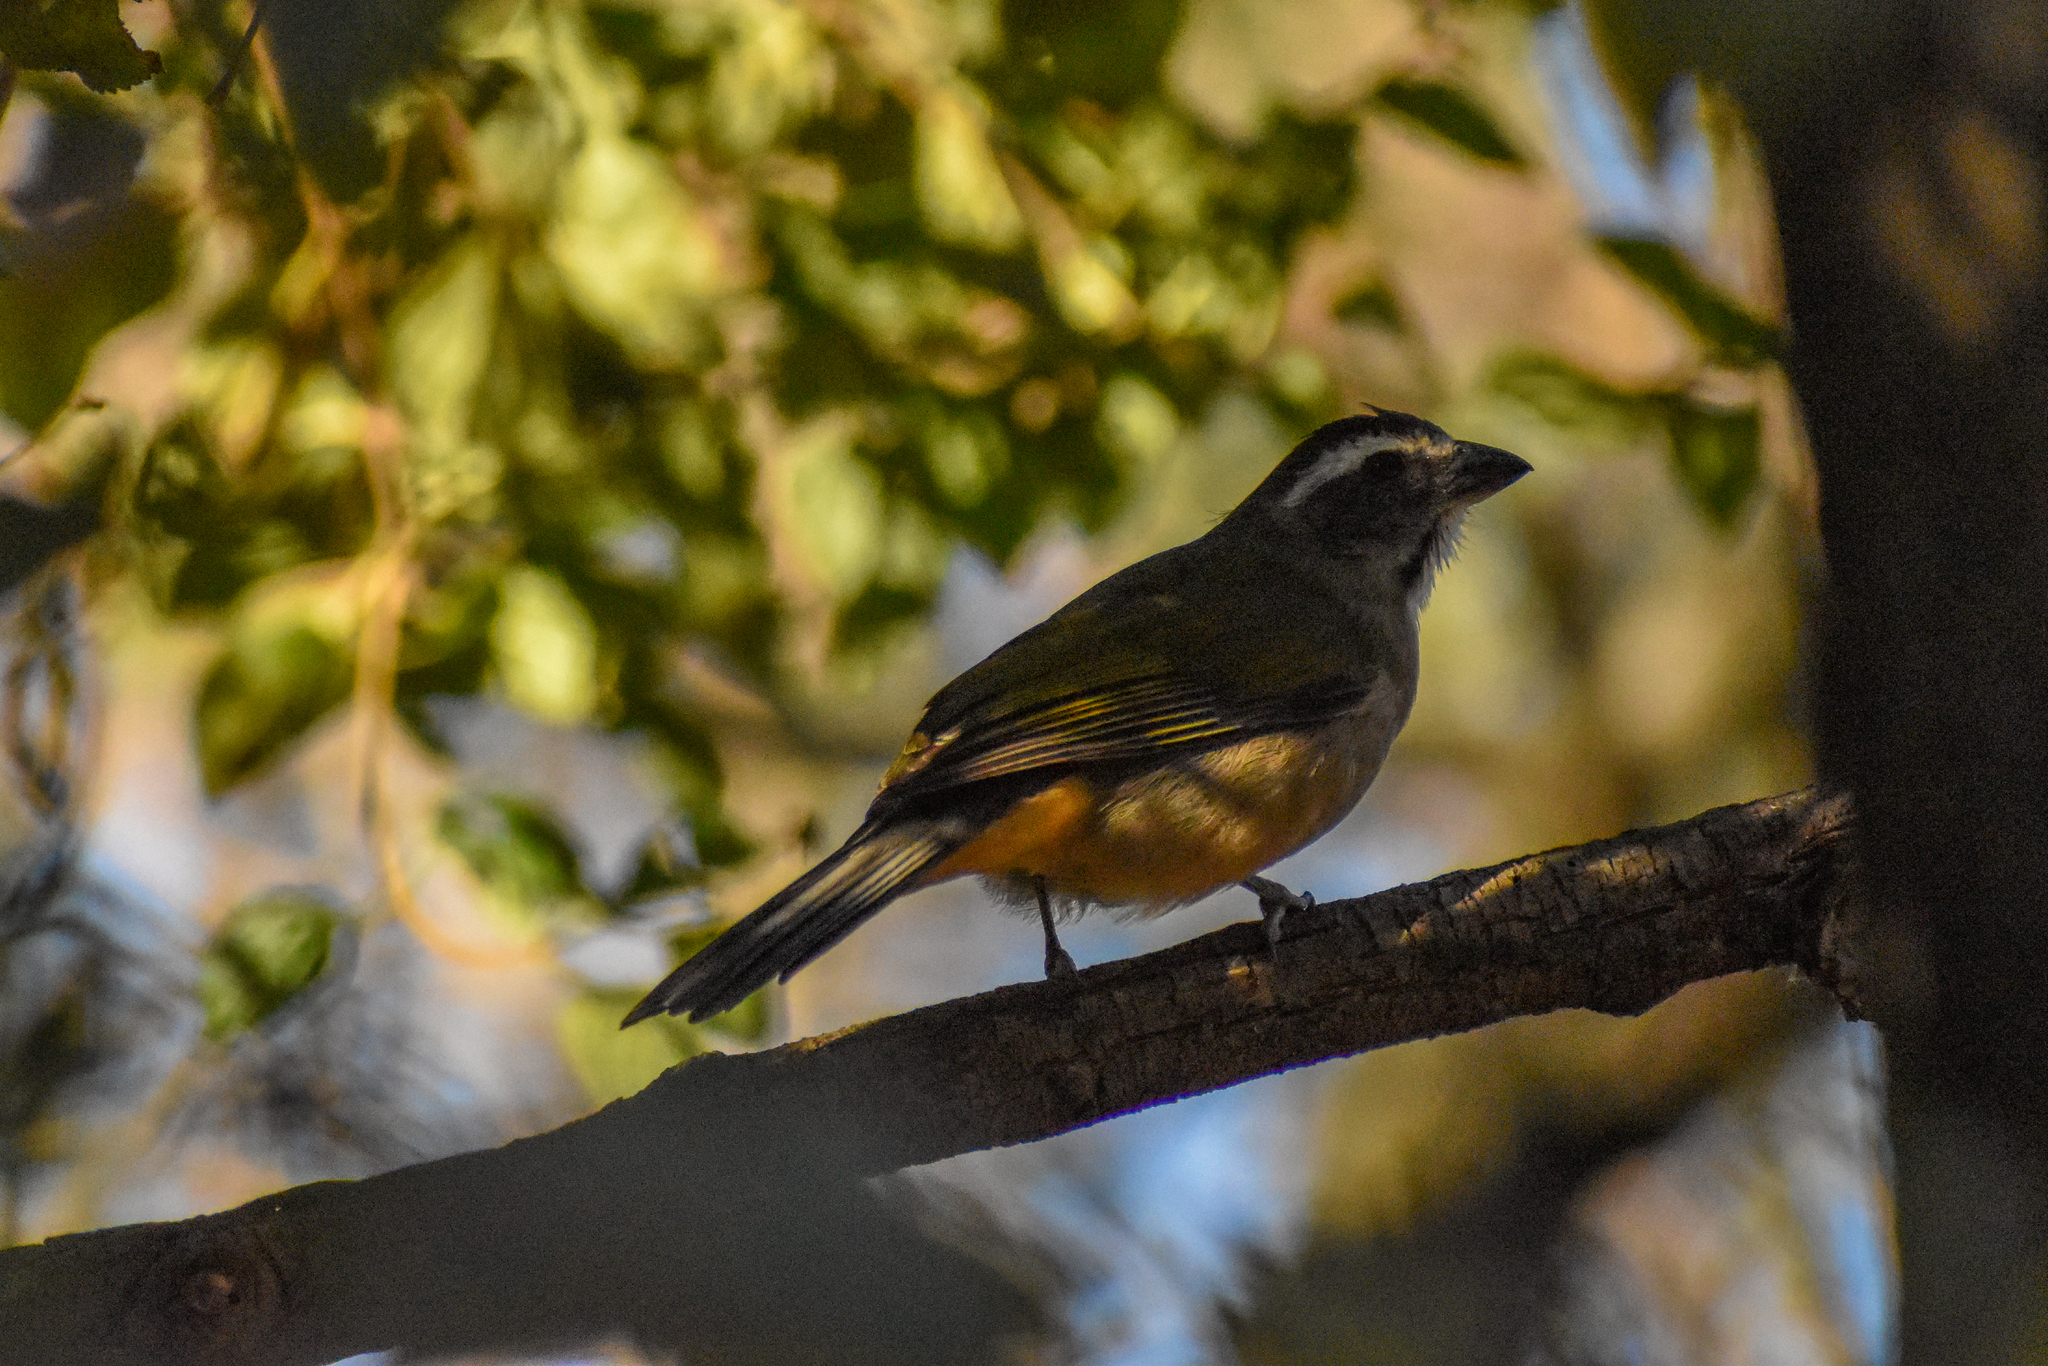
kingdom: Animalia
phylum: Chordata
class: Aves
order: Passeriformes
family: Thraupidae
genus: Saltator
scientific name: Saltator similis
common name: Green-winged saltator
